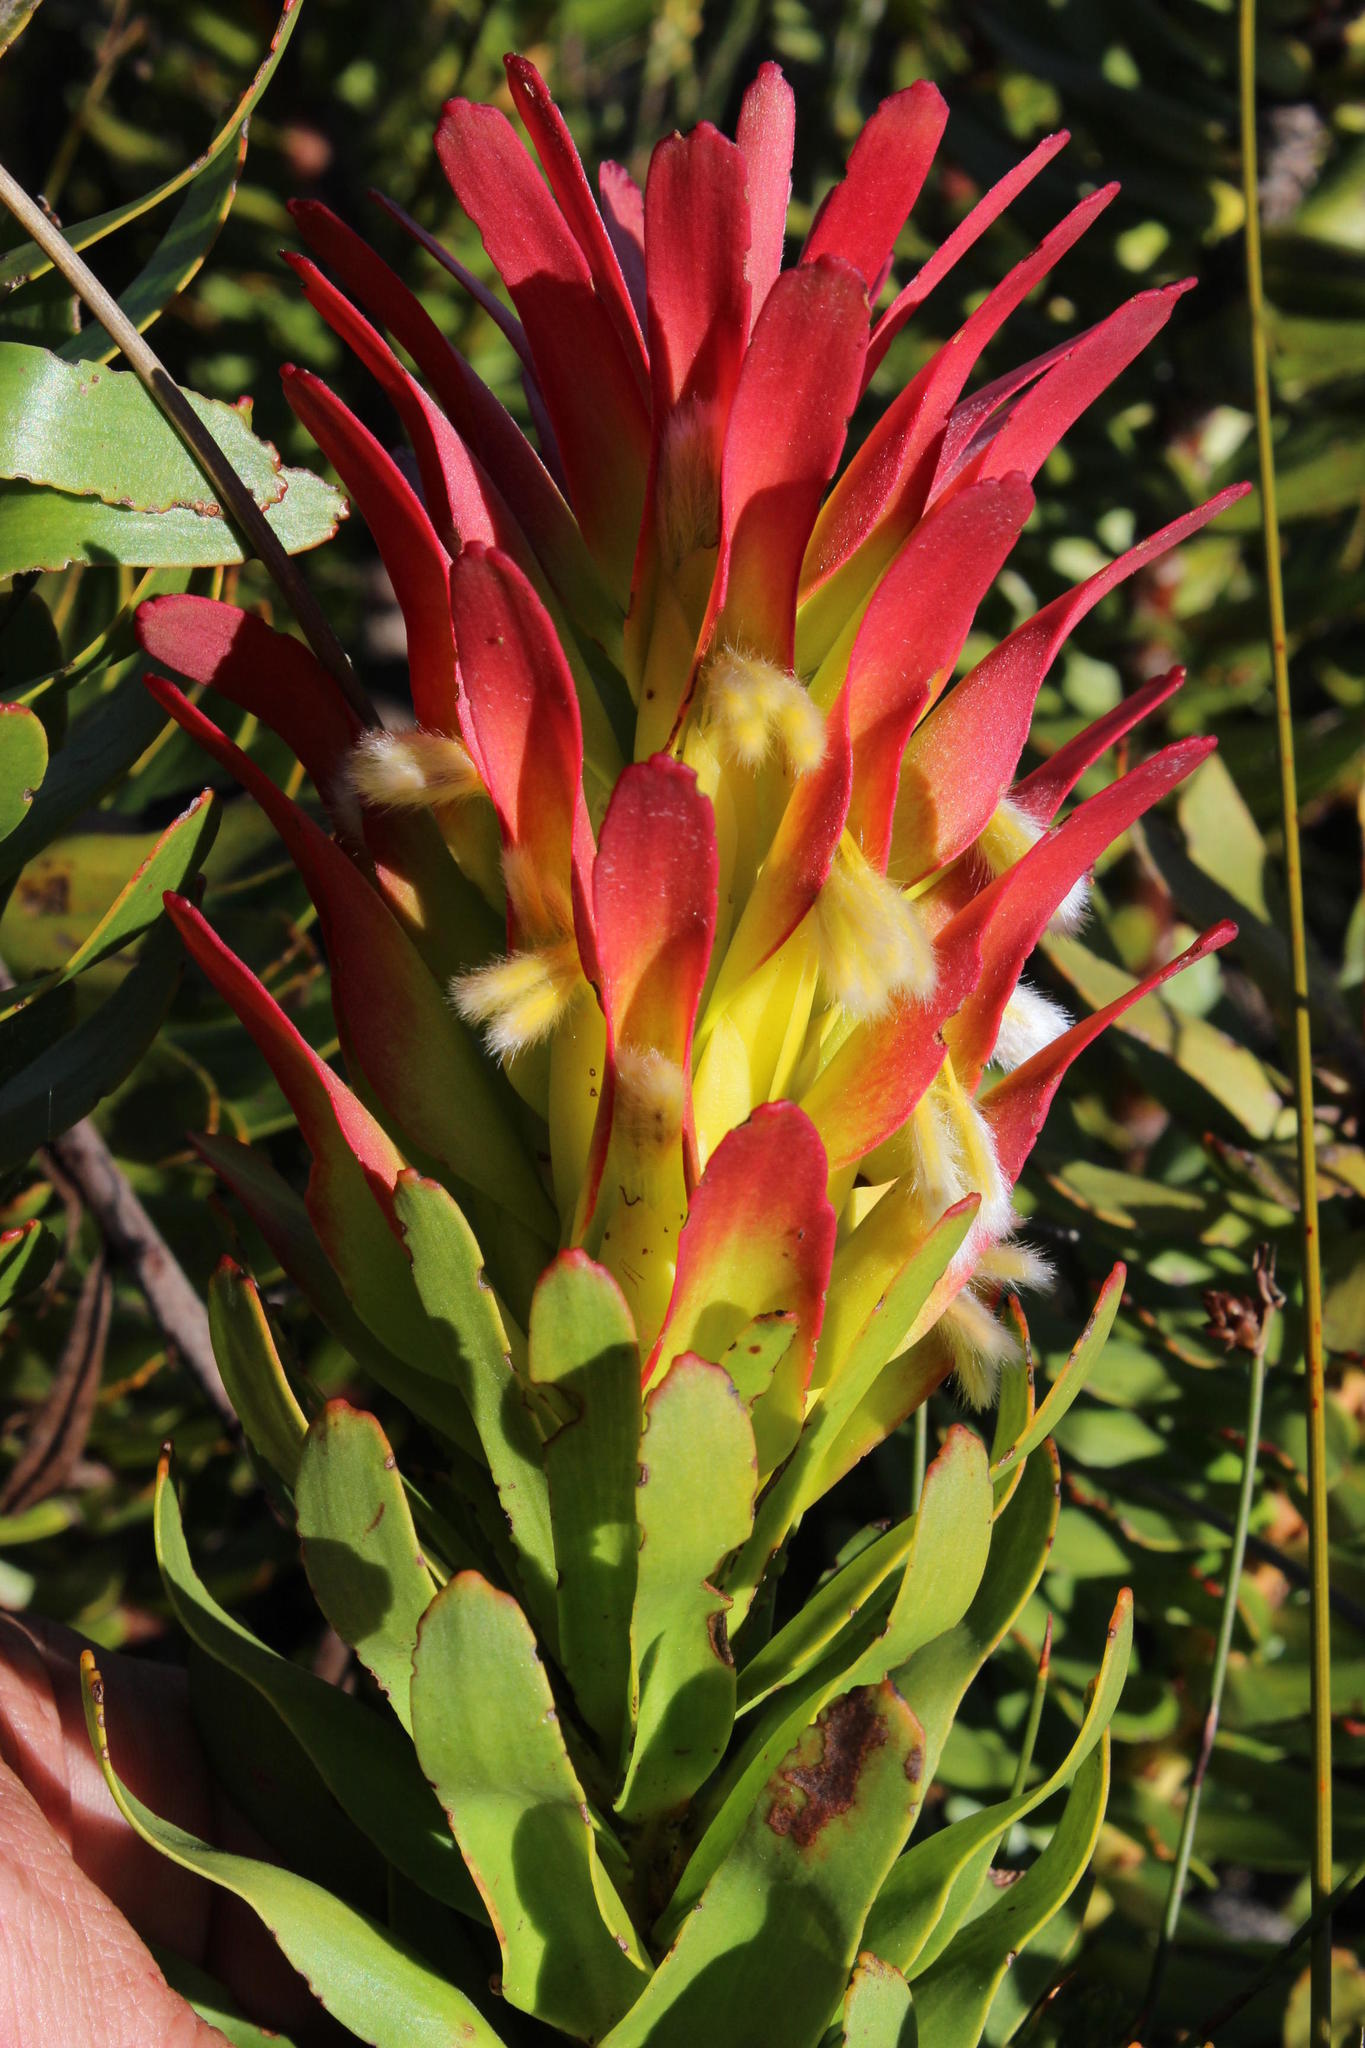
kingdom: Plantae
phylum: Tracheophyta
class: Magnoliopsida
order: Proteales
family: Proteaceae
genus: Mimetes
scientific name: Mimetes cucullatus
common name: Common pagoda
